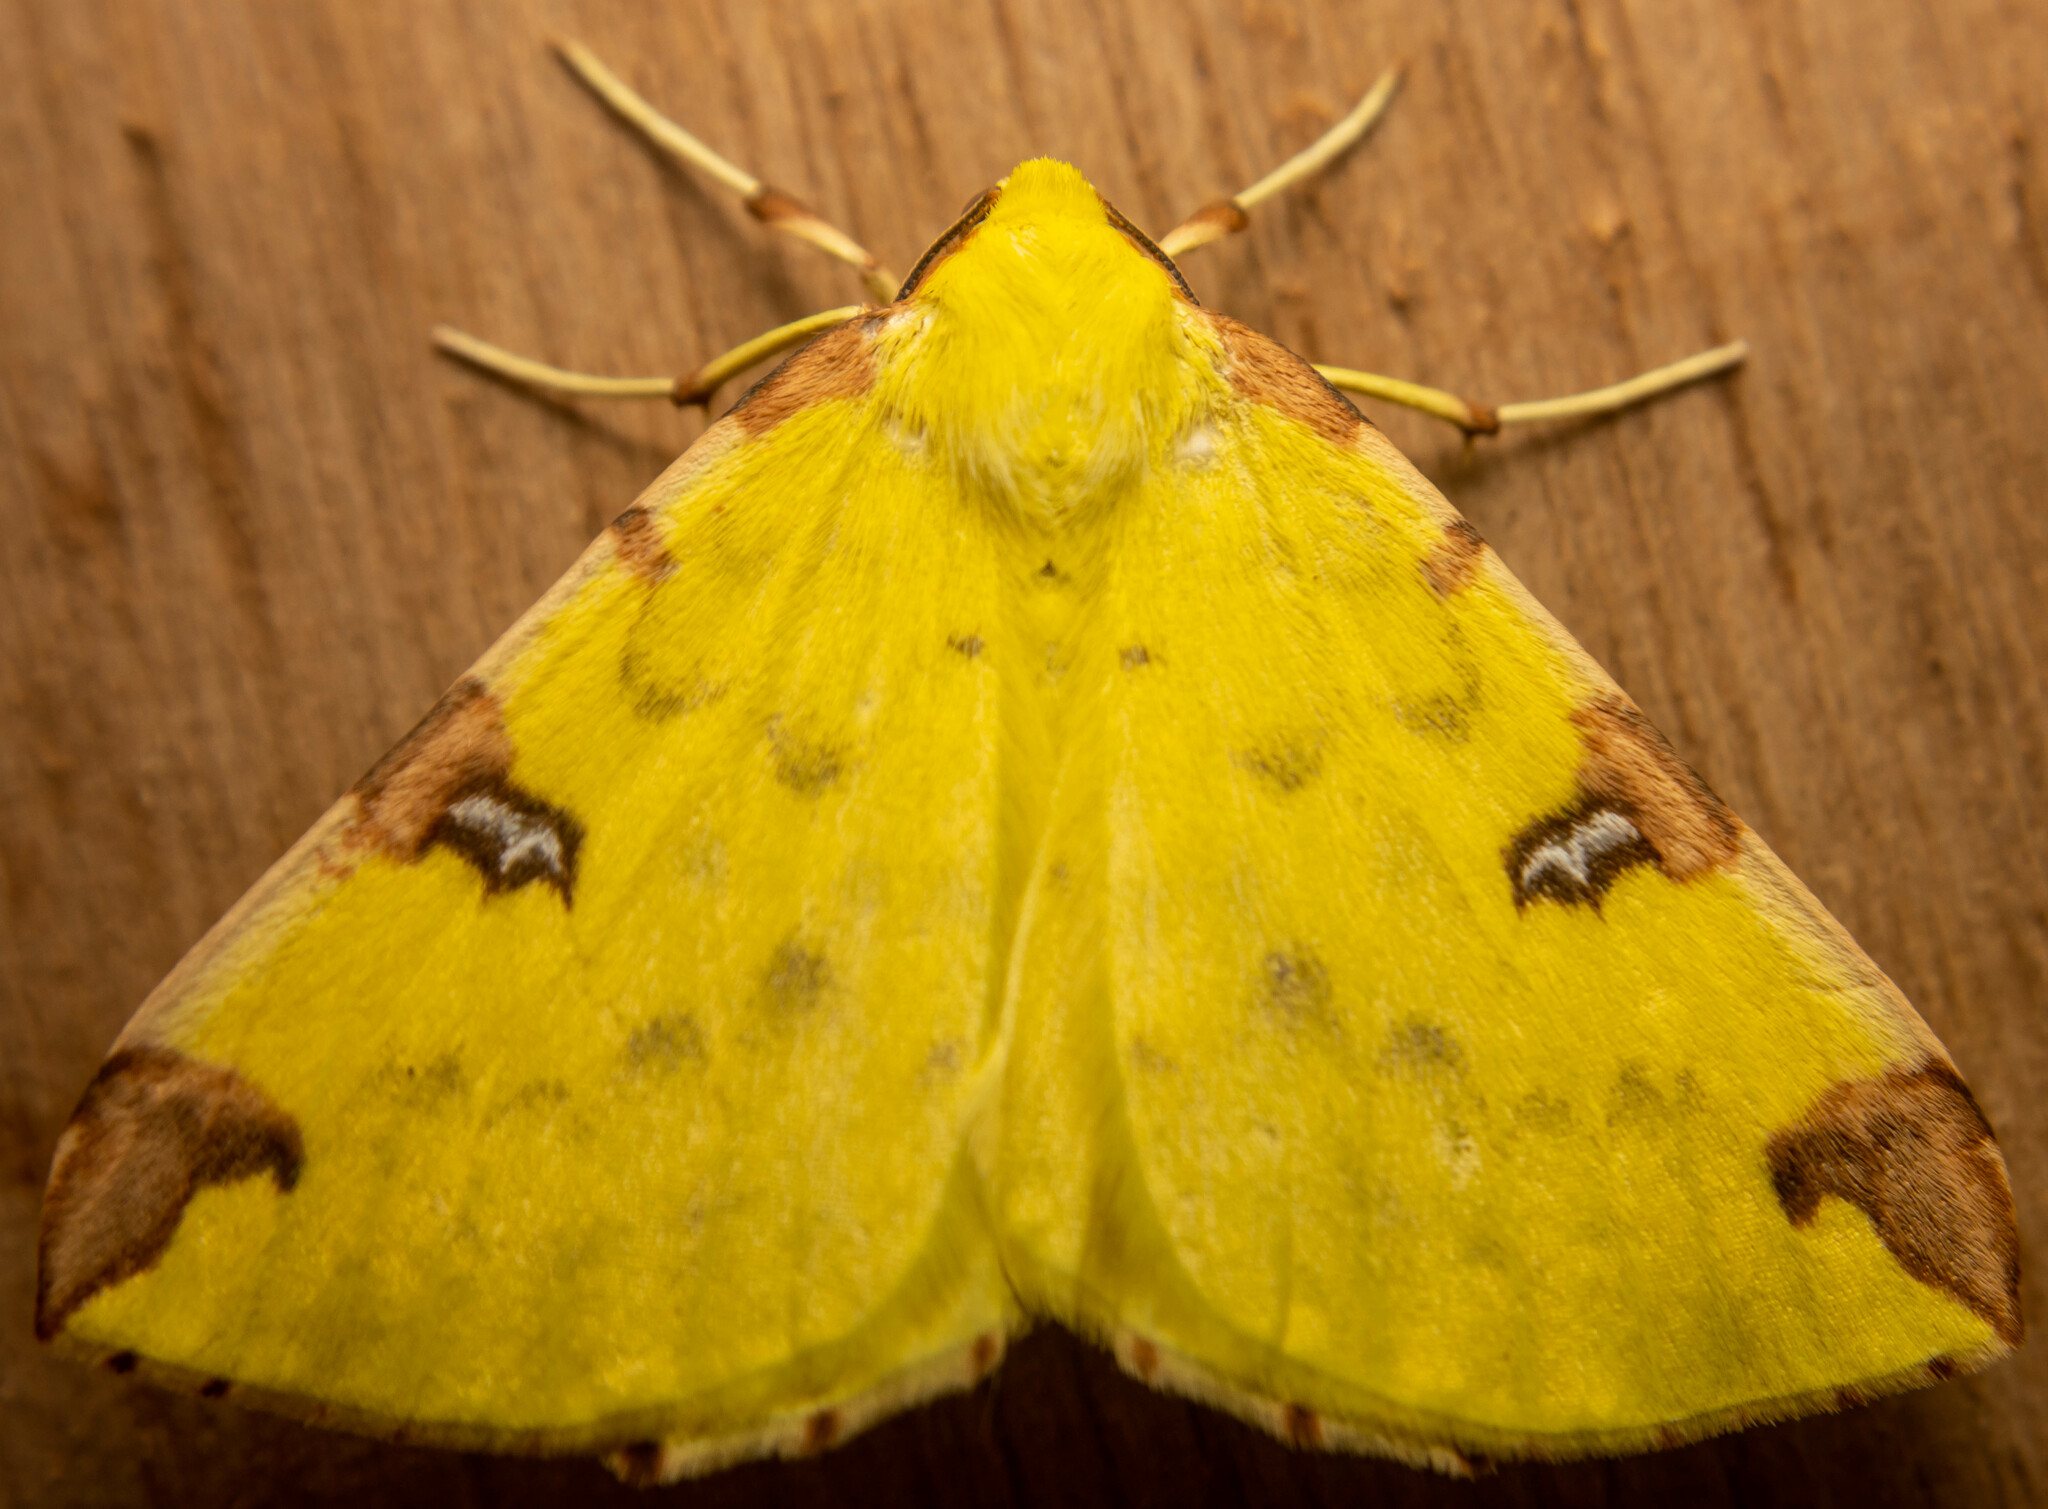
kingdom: Animalia
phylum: Arthropoda
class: Insecta
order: Lepidoptera
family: Geometridae
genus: Opisthograptis
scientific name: Opisthograptis luteolata
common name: Brimstone moth
